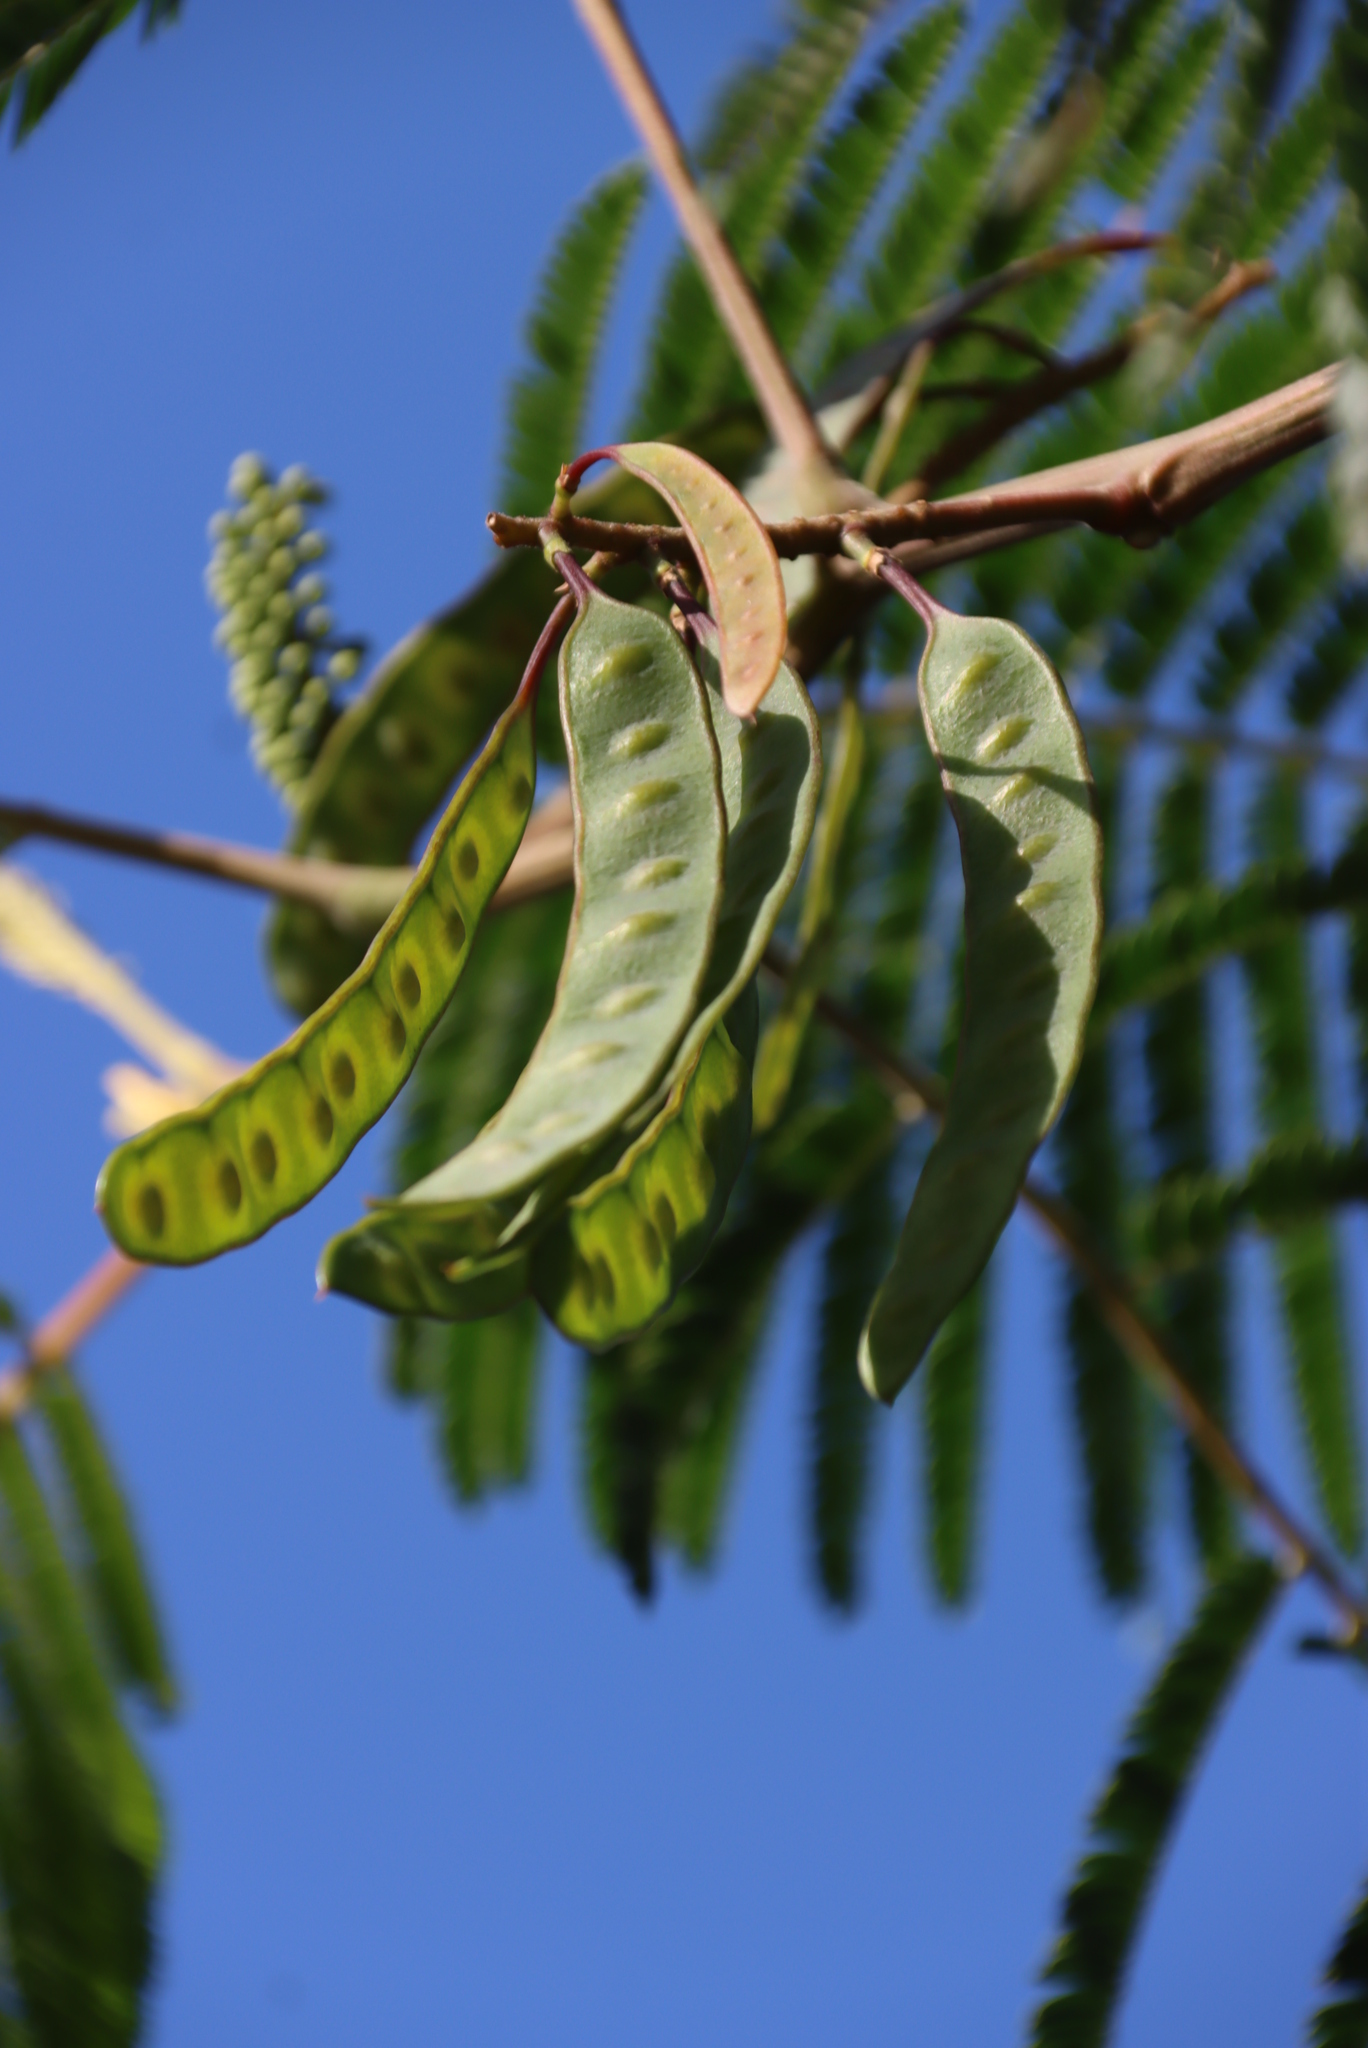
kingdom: Plantae
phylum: Tracheophyta
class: Magnoliopsida
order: Fabales
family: Fabaceae
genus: Paraserianthes
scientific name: Paraserianthes lophantha
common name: Plume albizia
